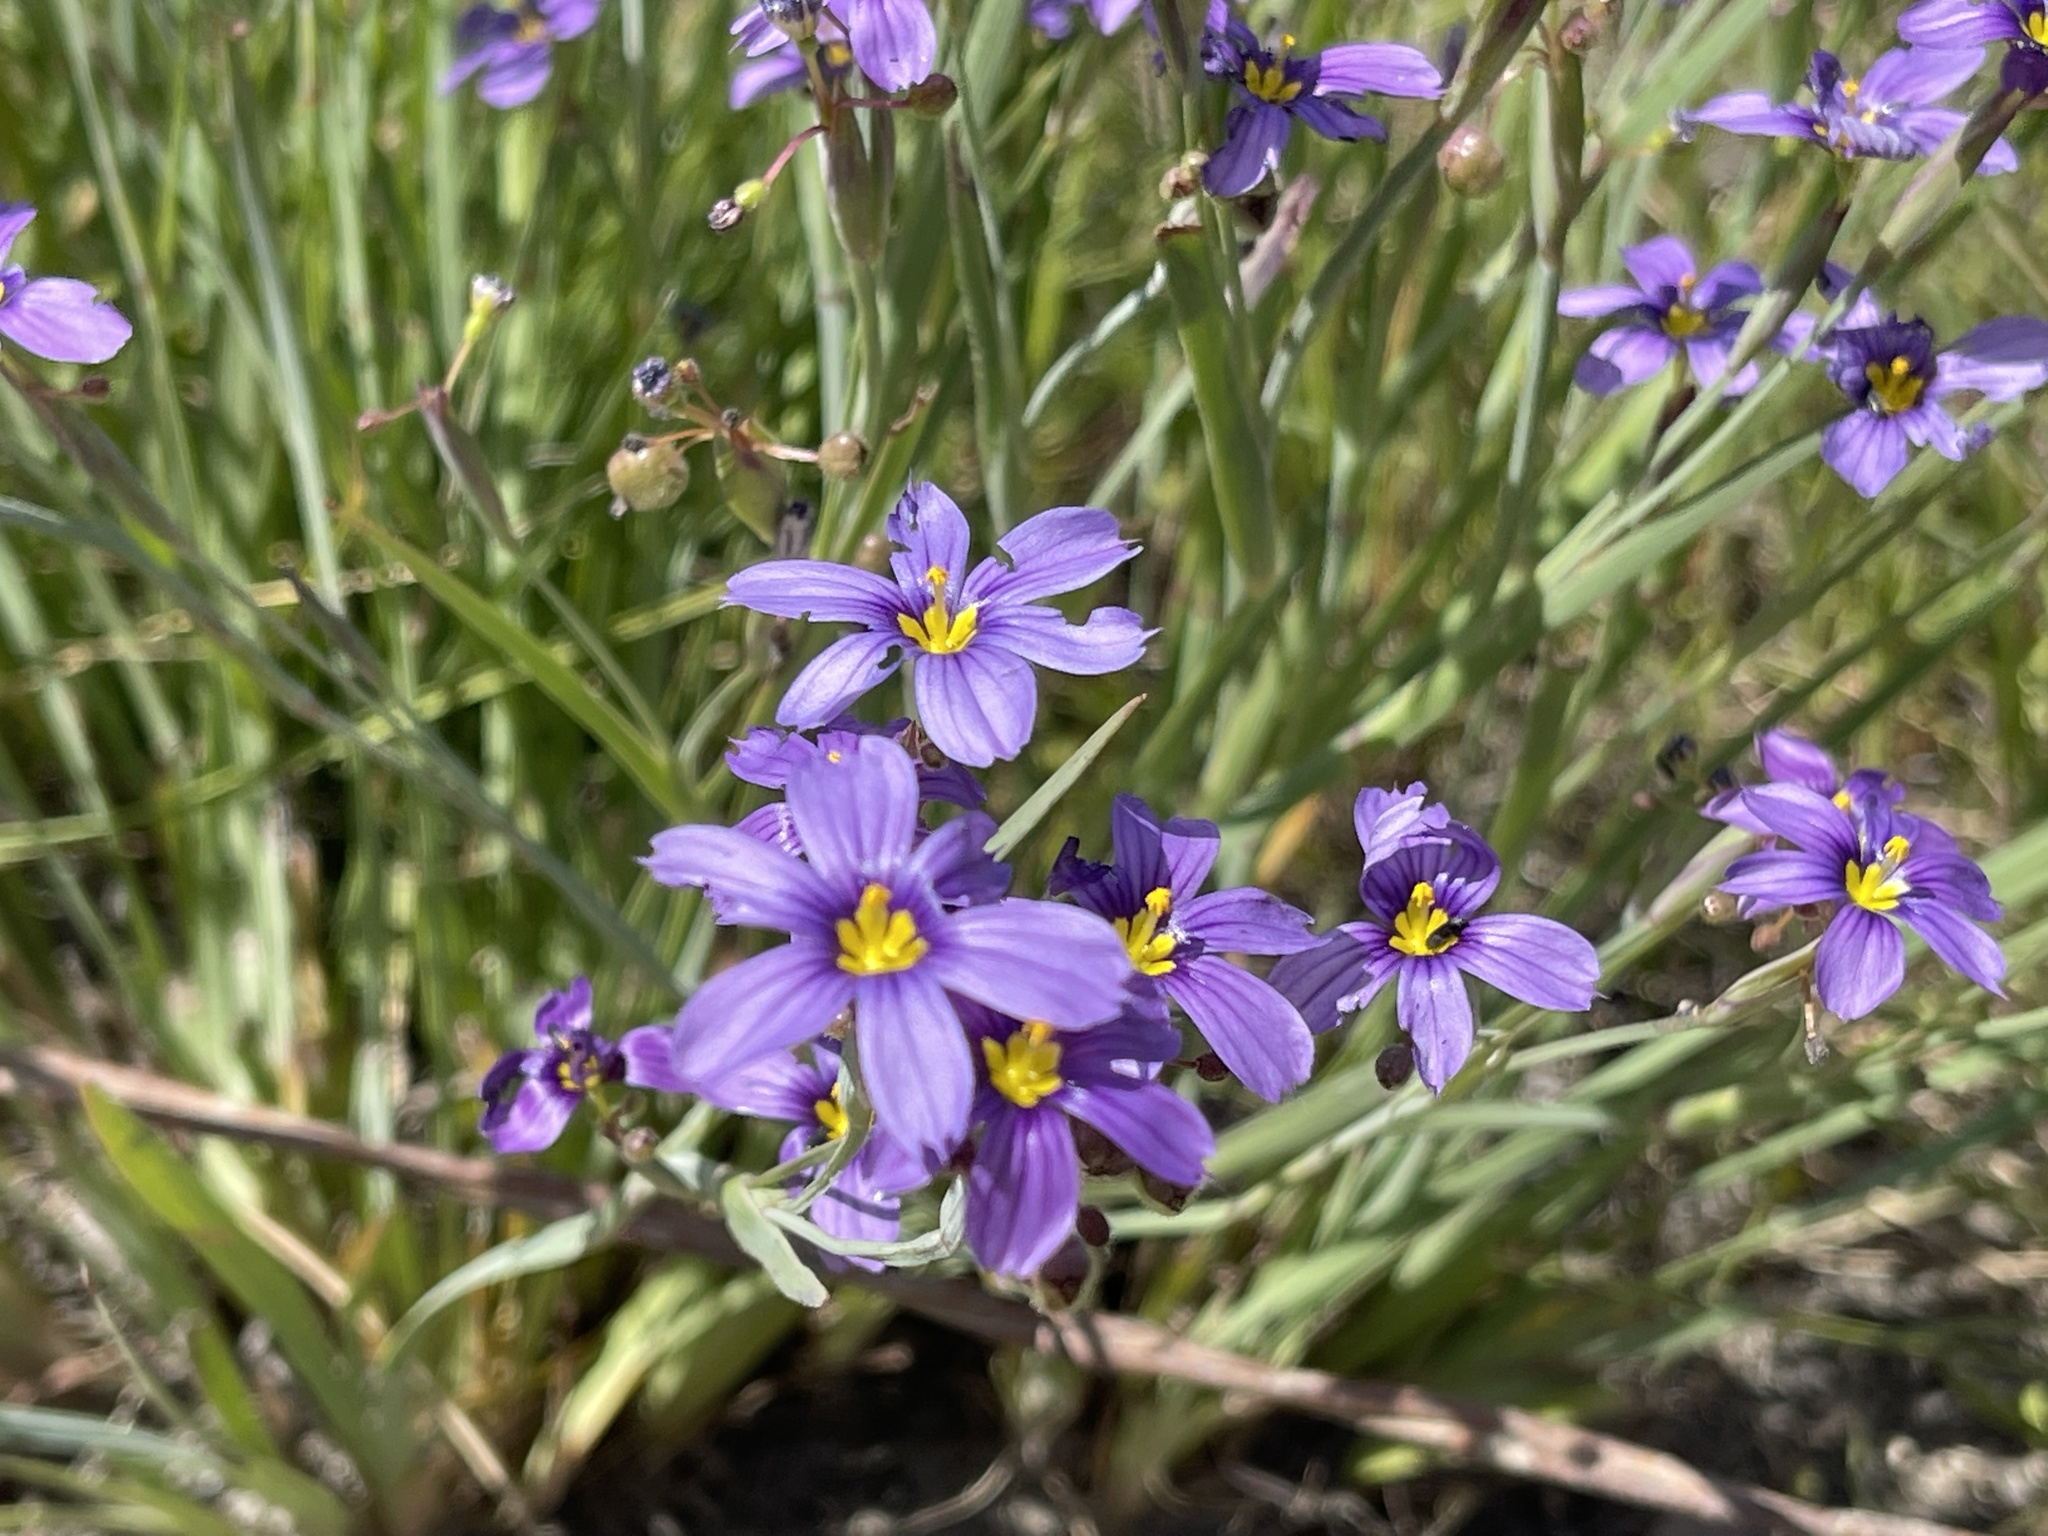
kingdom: Plantae
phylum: Tracheophyta
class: Liliopsida
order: Asparagales
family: Iridaceae
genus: Sisyrinchium
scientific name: Sisyrinchium bellum
